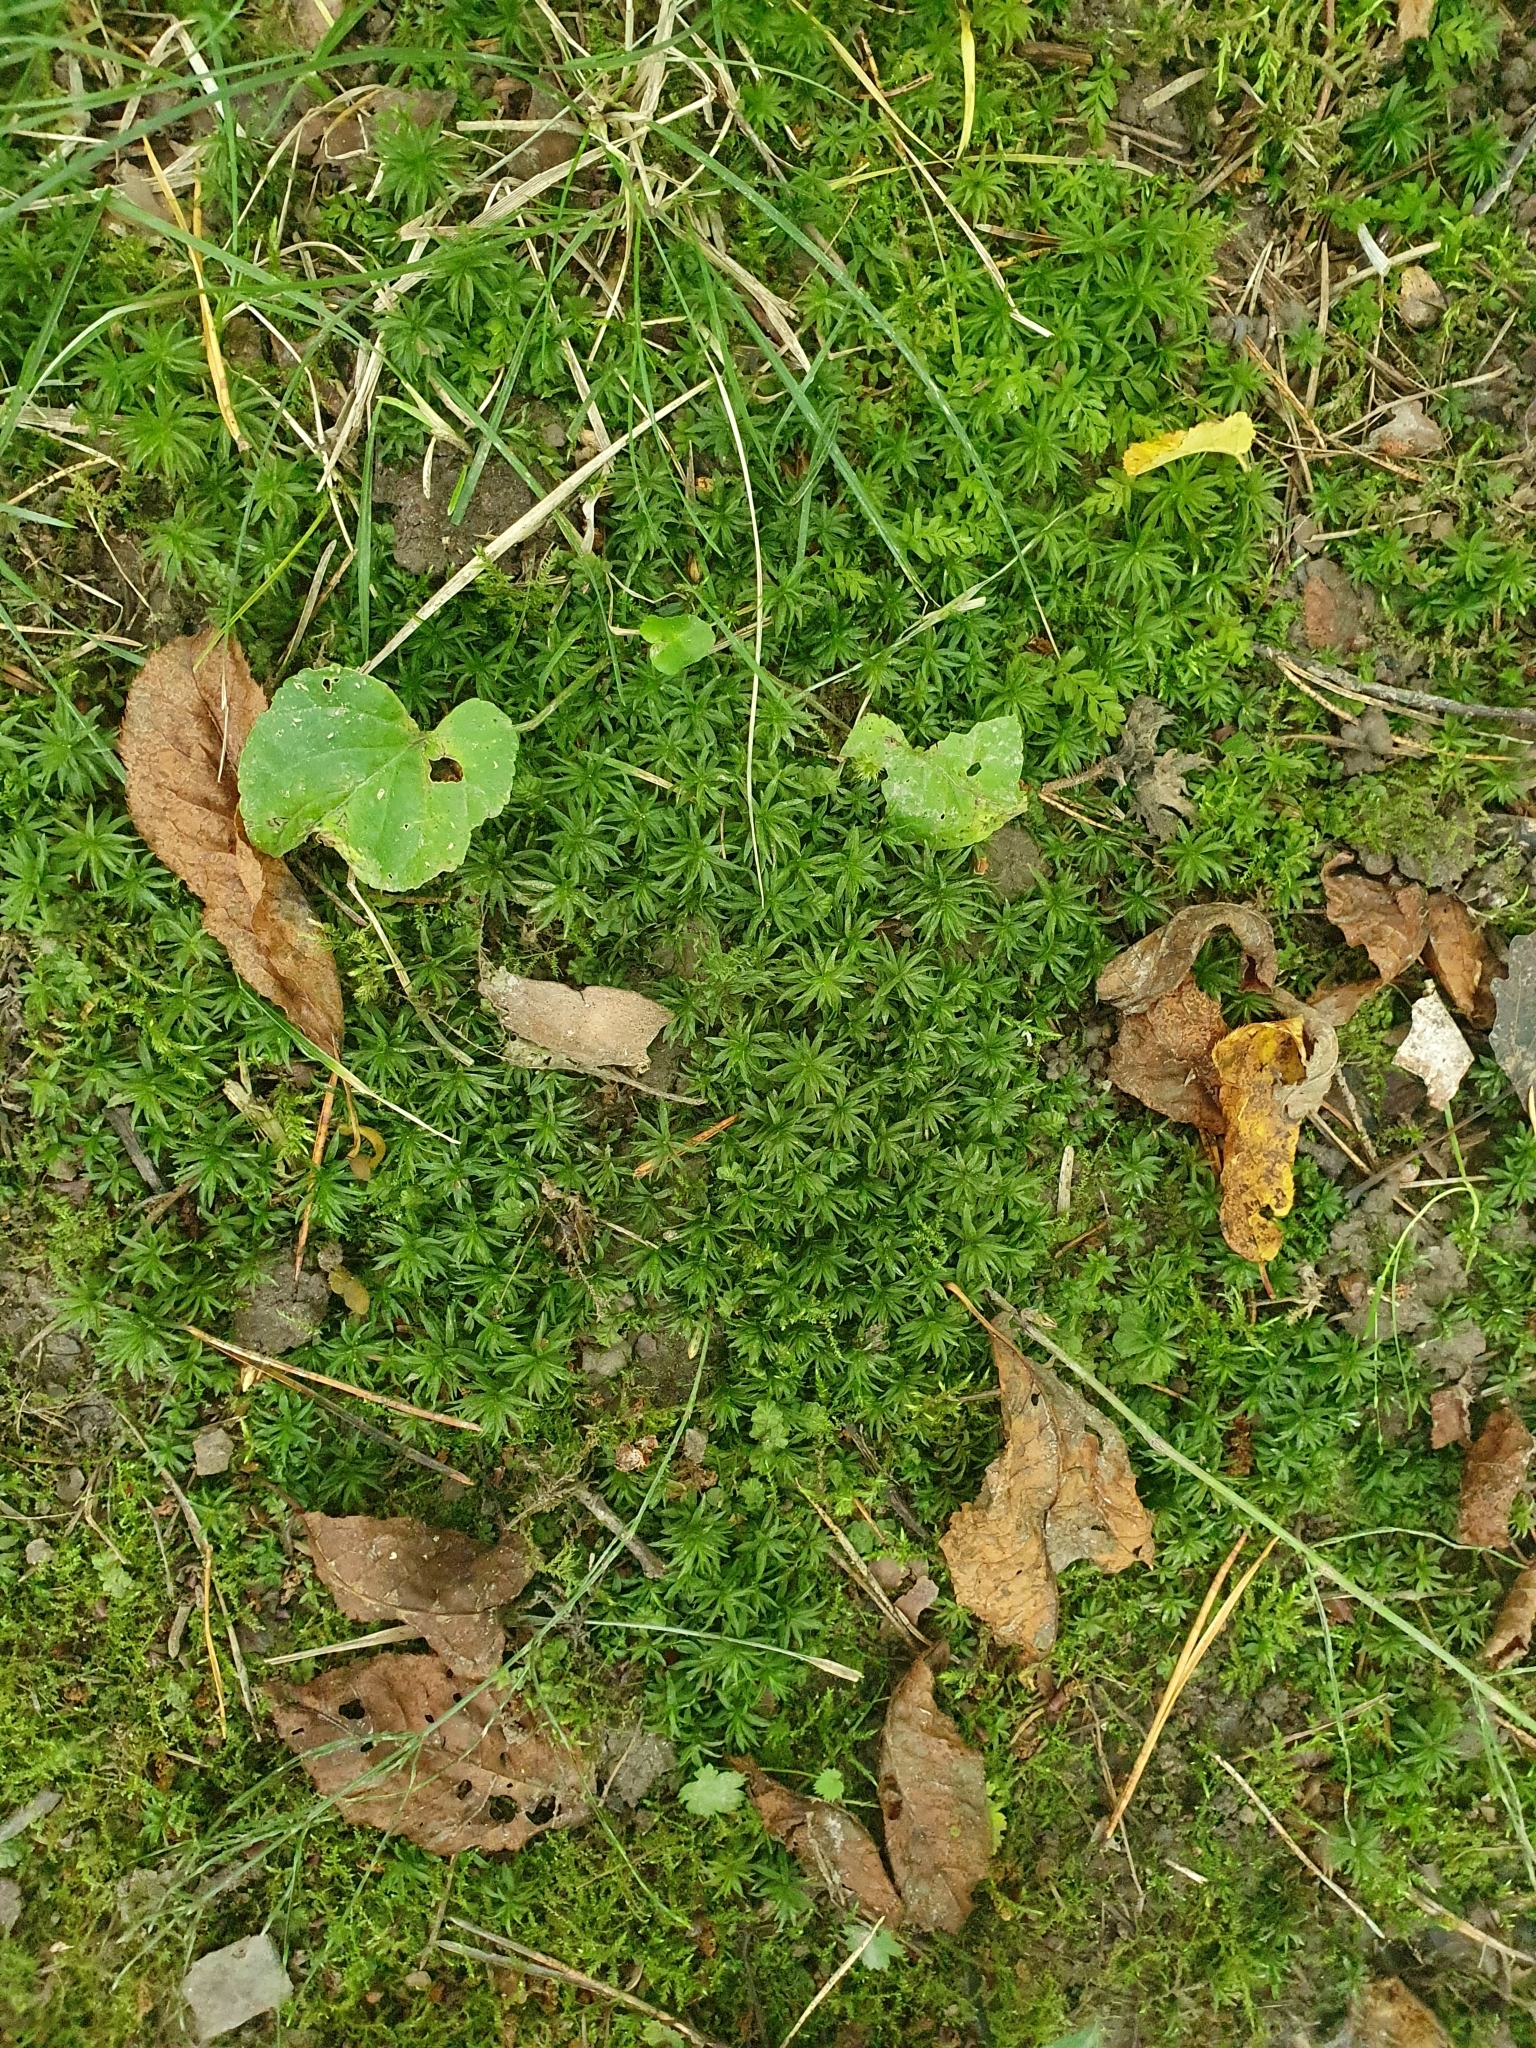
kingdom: Plantae
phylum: Bryophyta
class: Polytrichopsida
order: Polytrichales
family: Polytrichaceae
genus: Atrichum
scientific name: Atrichum undulatum
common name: Common smoothcap
